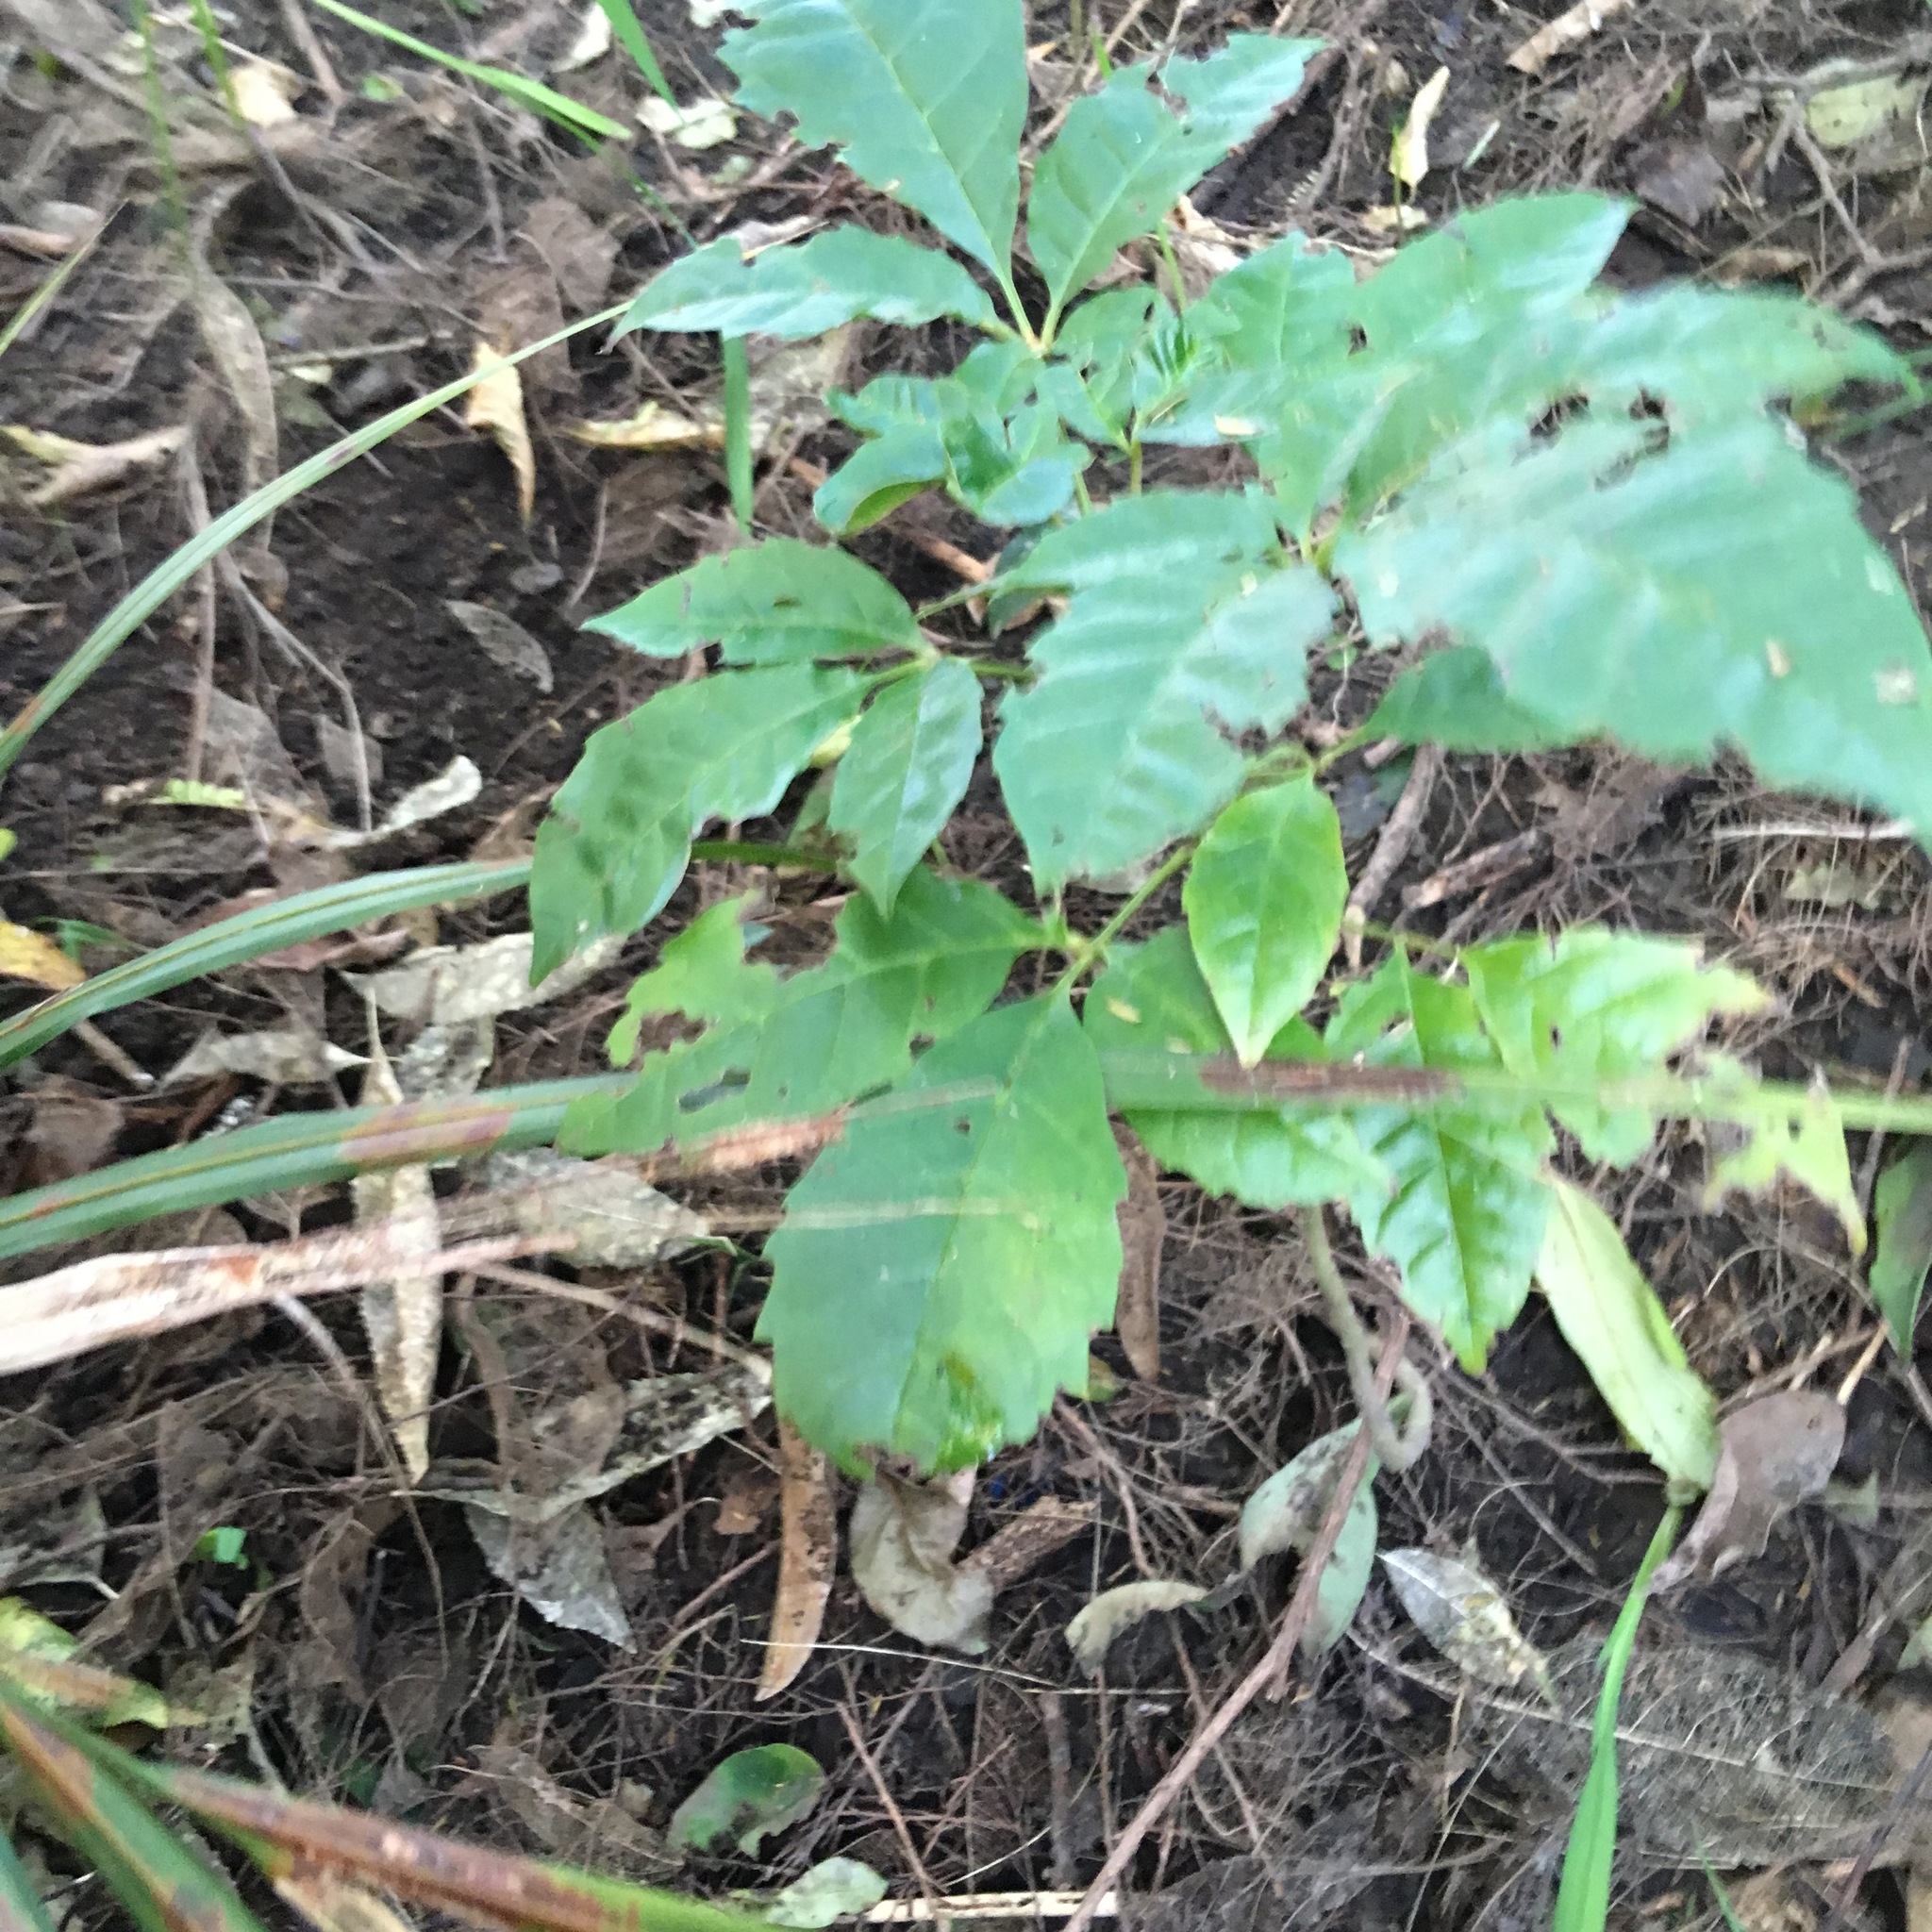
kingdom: Plantae
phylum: Tracheophyta
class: Magnoliopsida
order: Lamiales
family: Lamiaceae
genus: Vitex
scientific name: Vitex lucens
